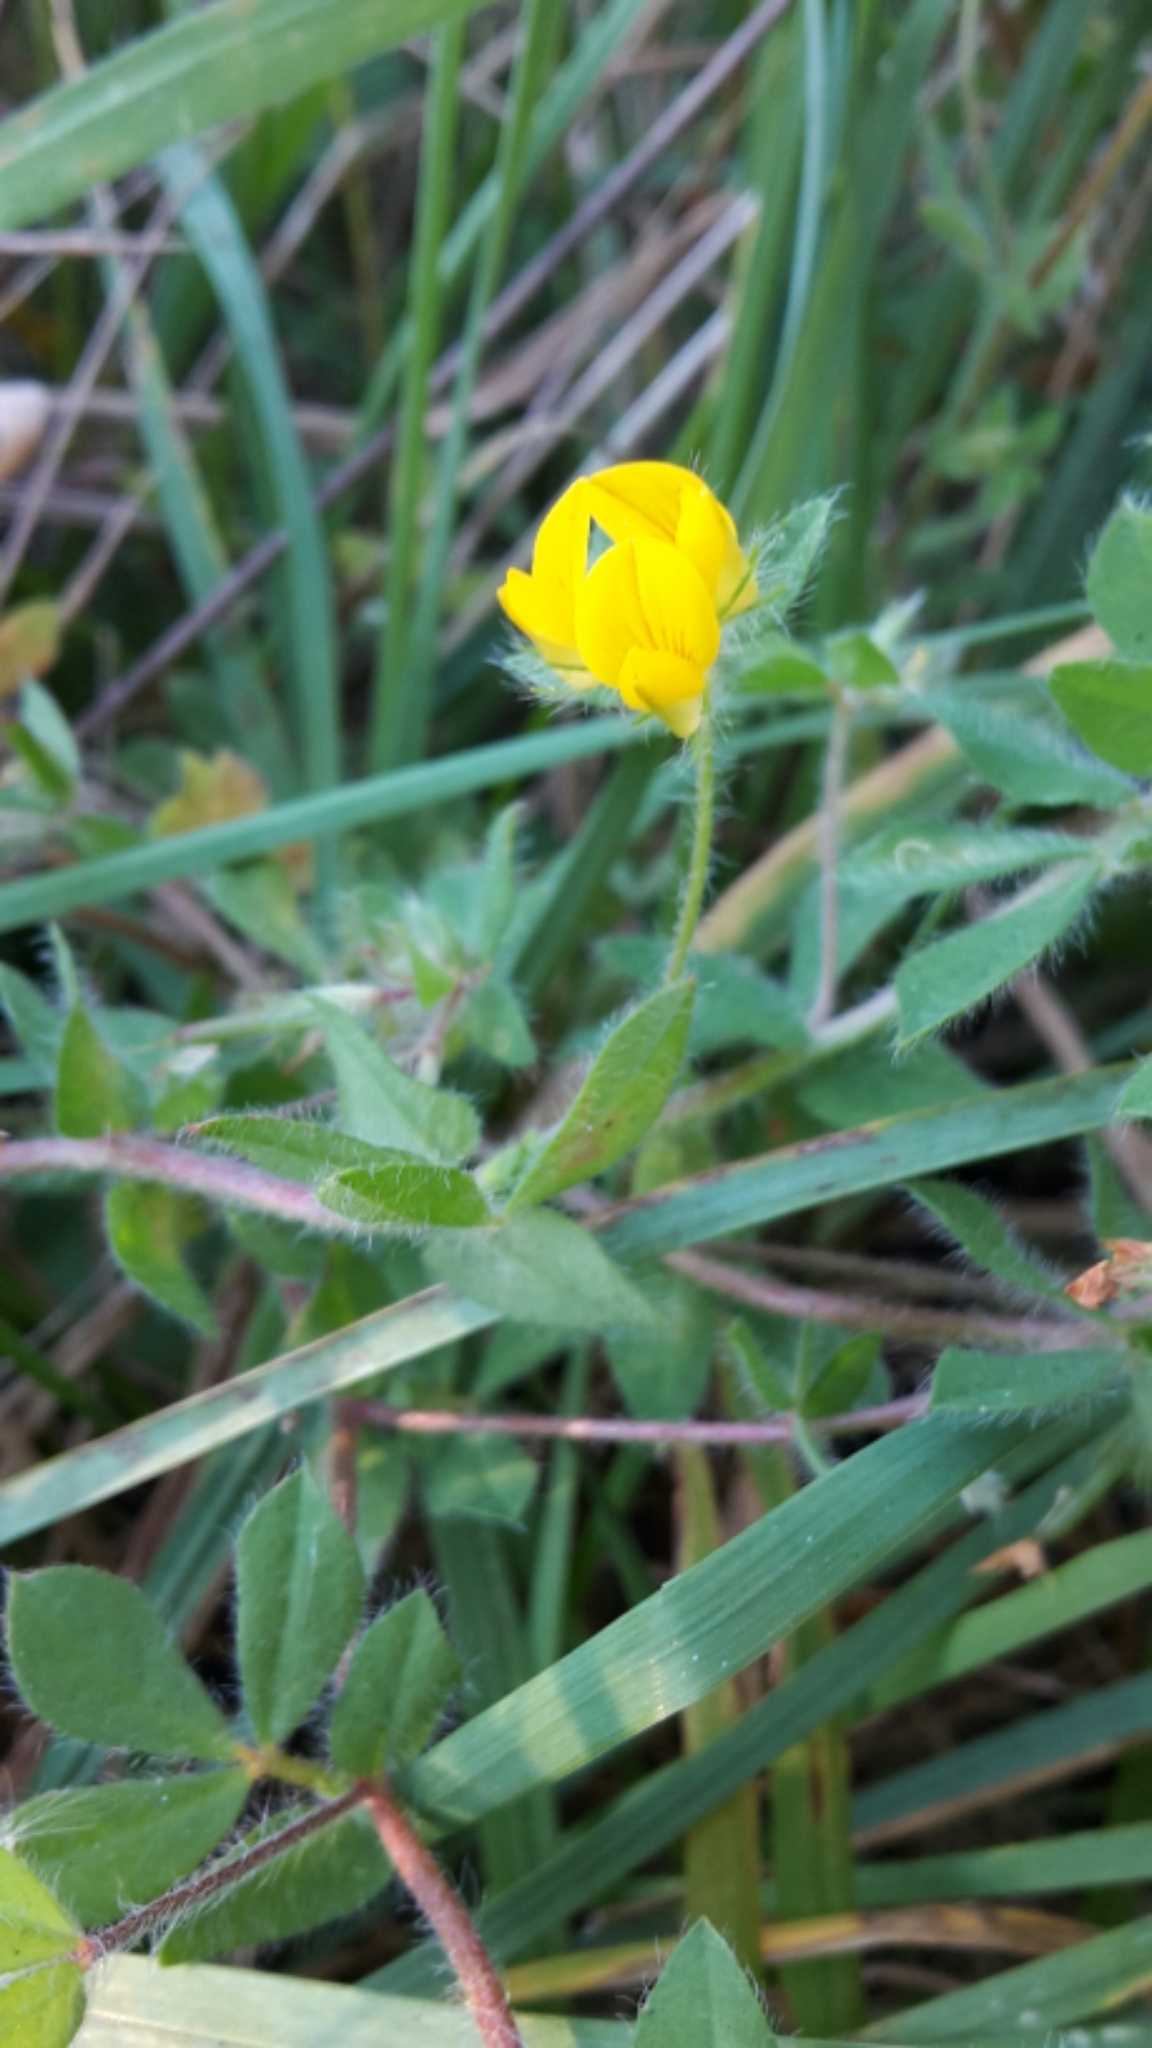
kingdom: Plantae
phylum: Tracheophyta
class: Magnoliopsida
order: Fabales
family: Fabaceae
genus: Lotus
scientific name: Lotus pedunculatus
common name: Greater birdsfoot-trefoil
